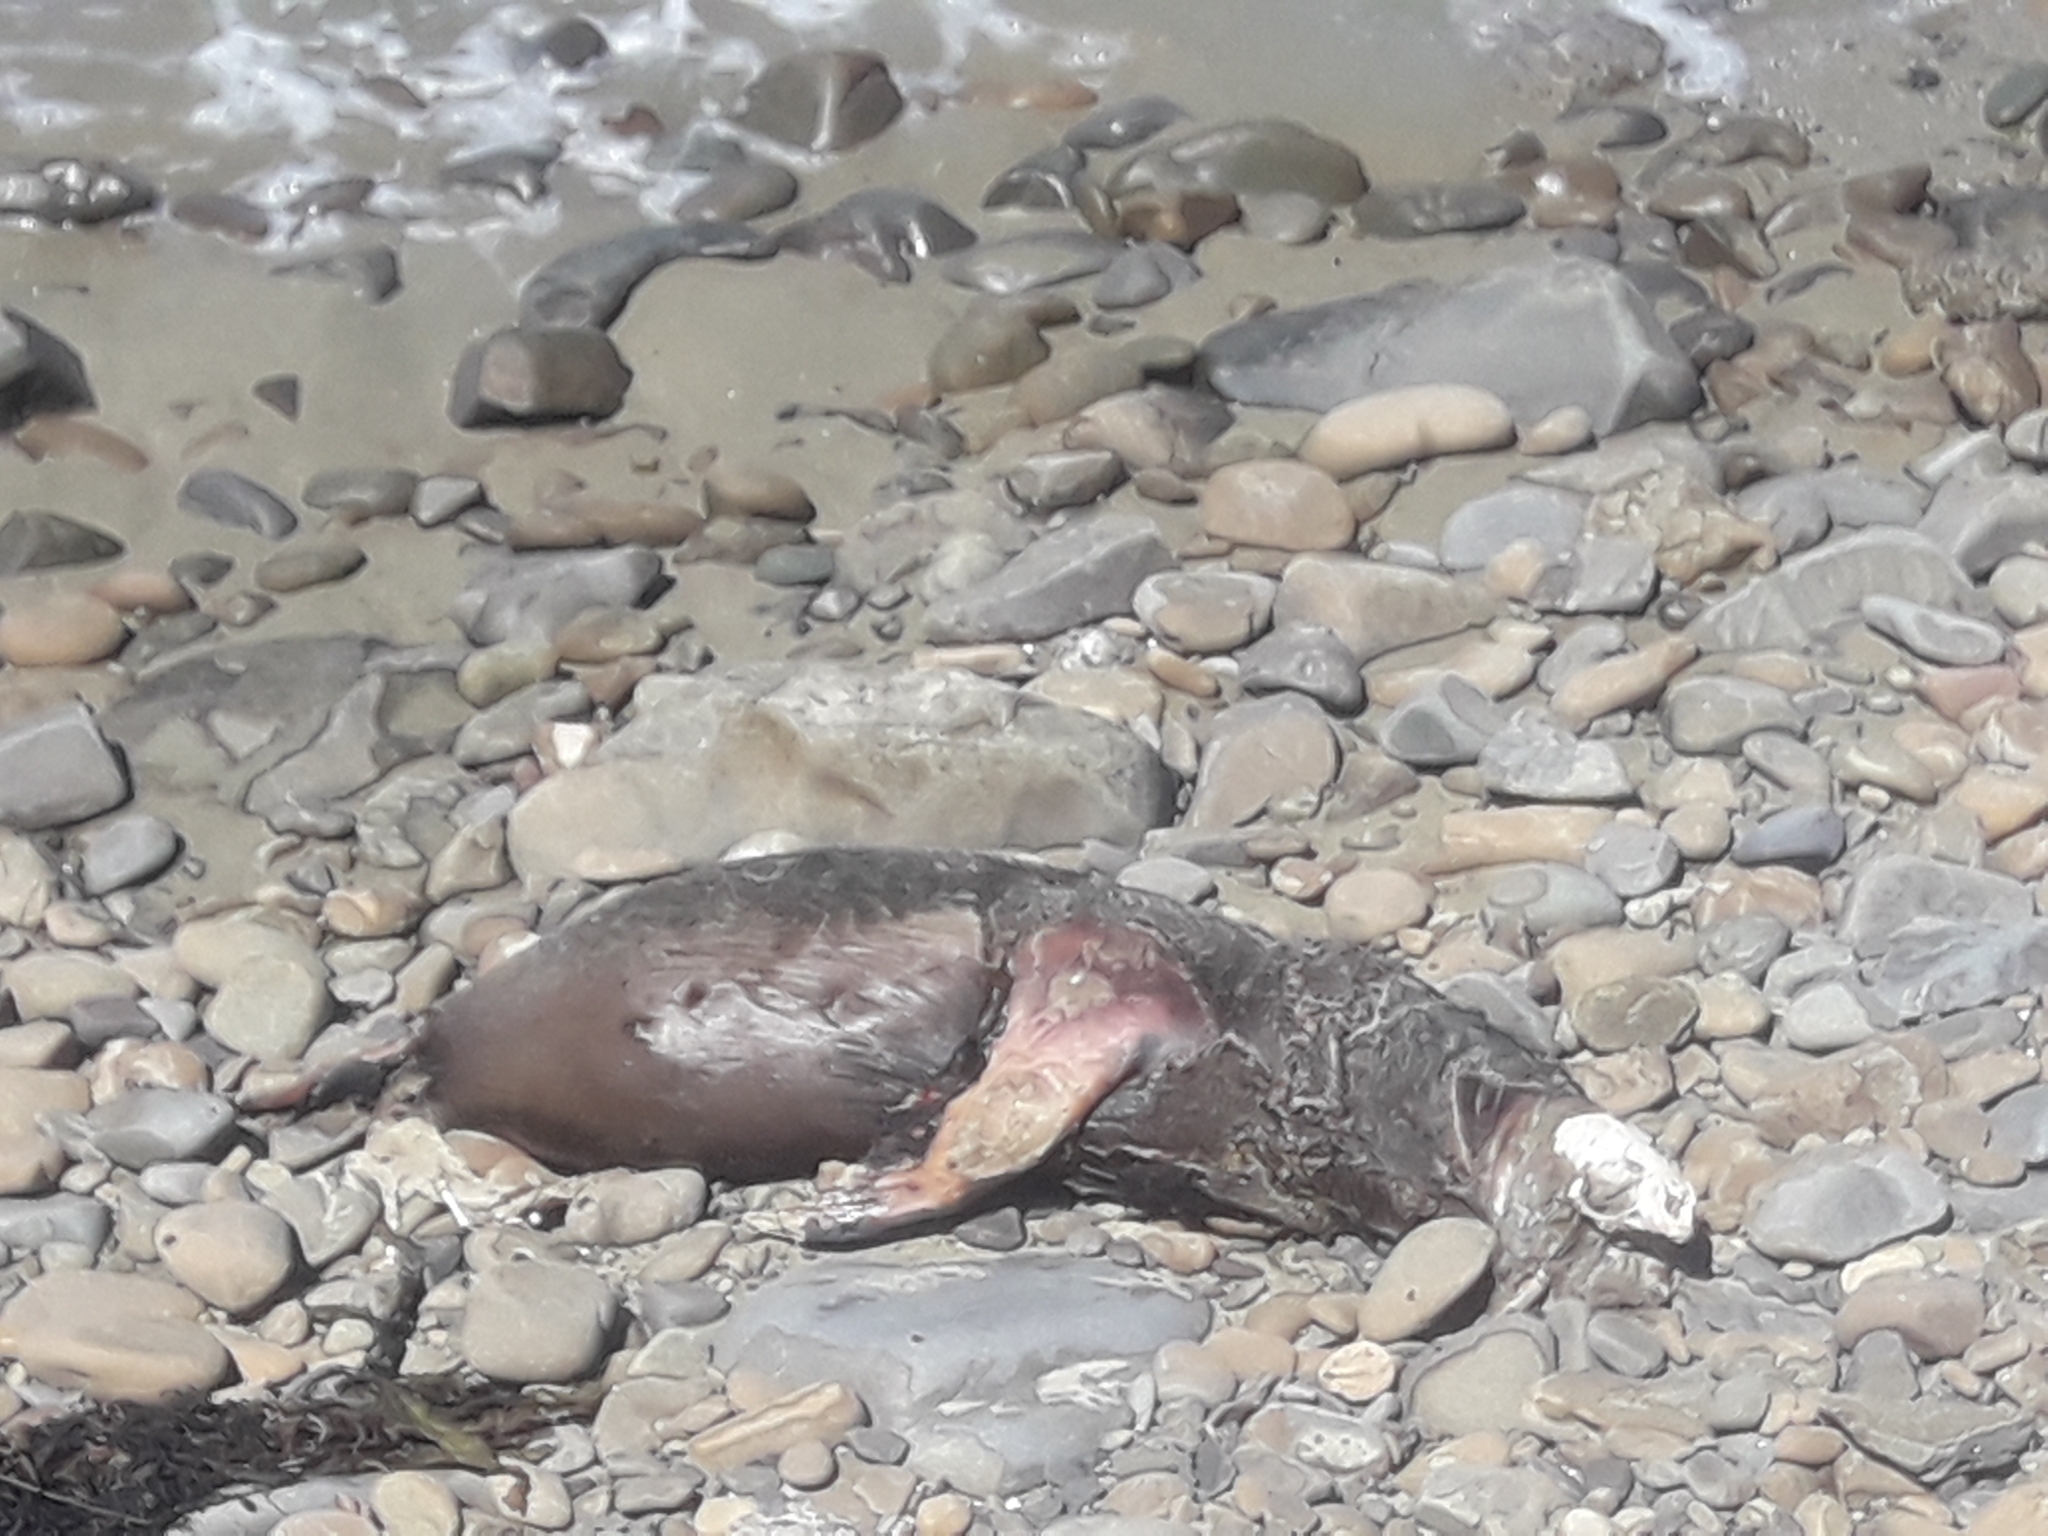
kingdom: Animalia
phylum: Chordata
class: Mammalia
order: Carnivora
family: Otariidae
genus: Arctocephalus
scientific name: Arctocephalus forsteri
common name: New zealand fur seal
